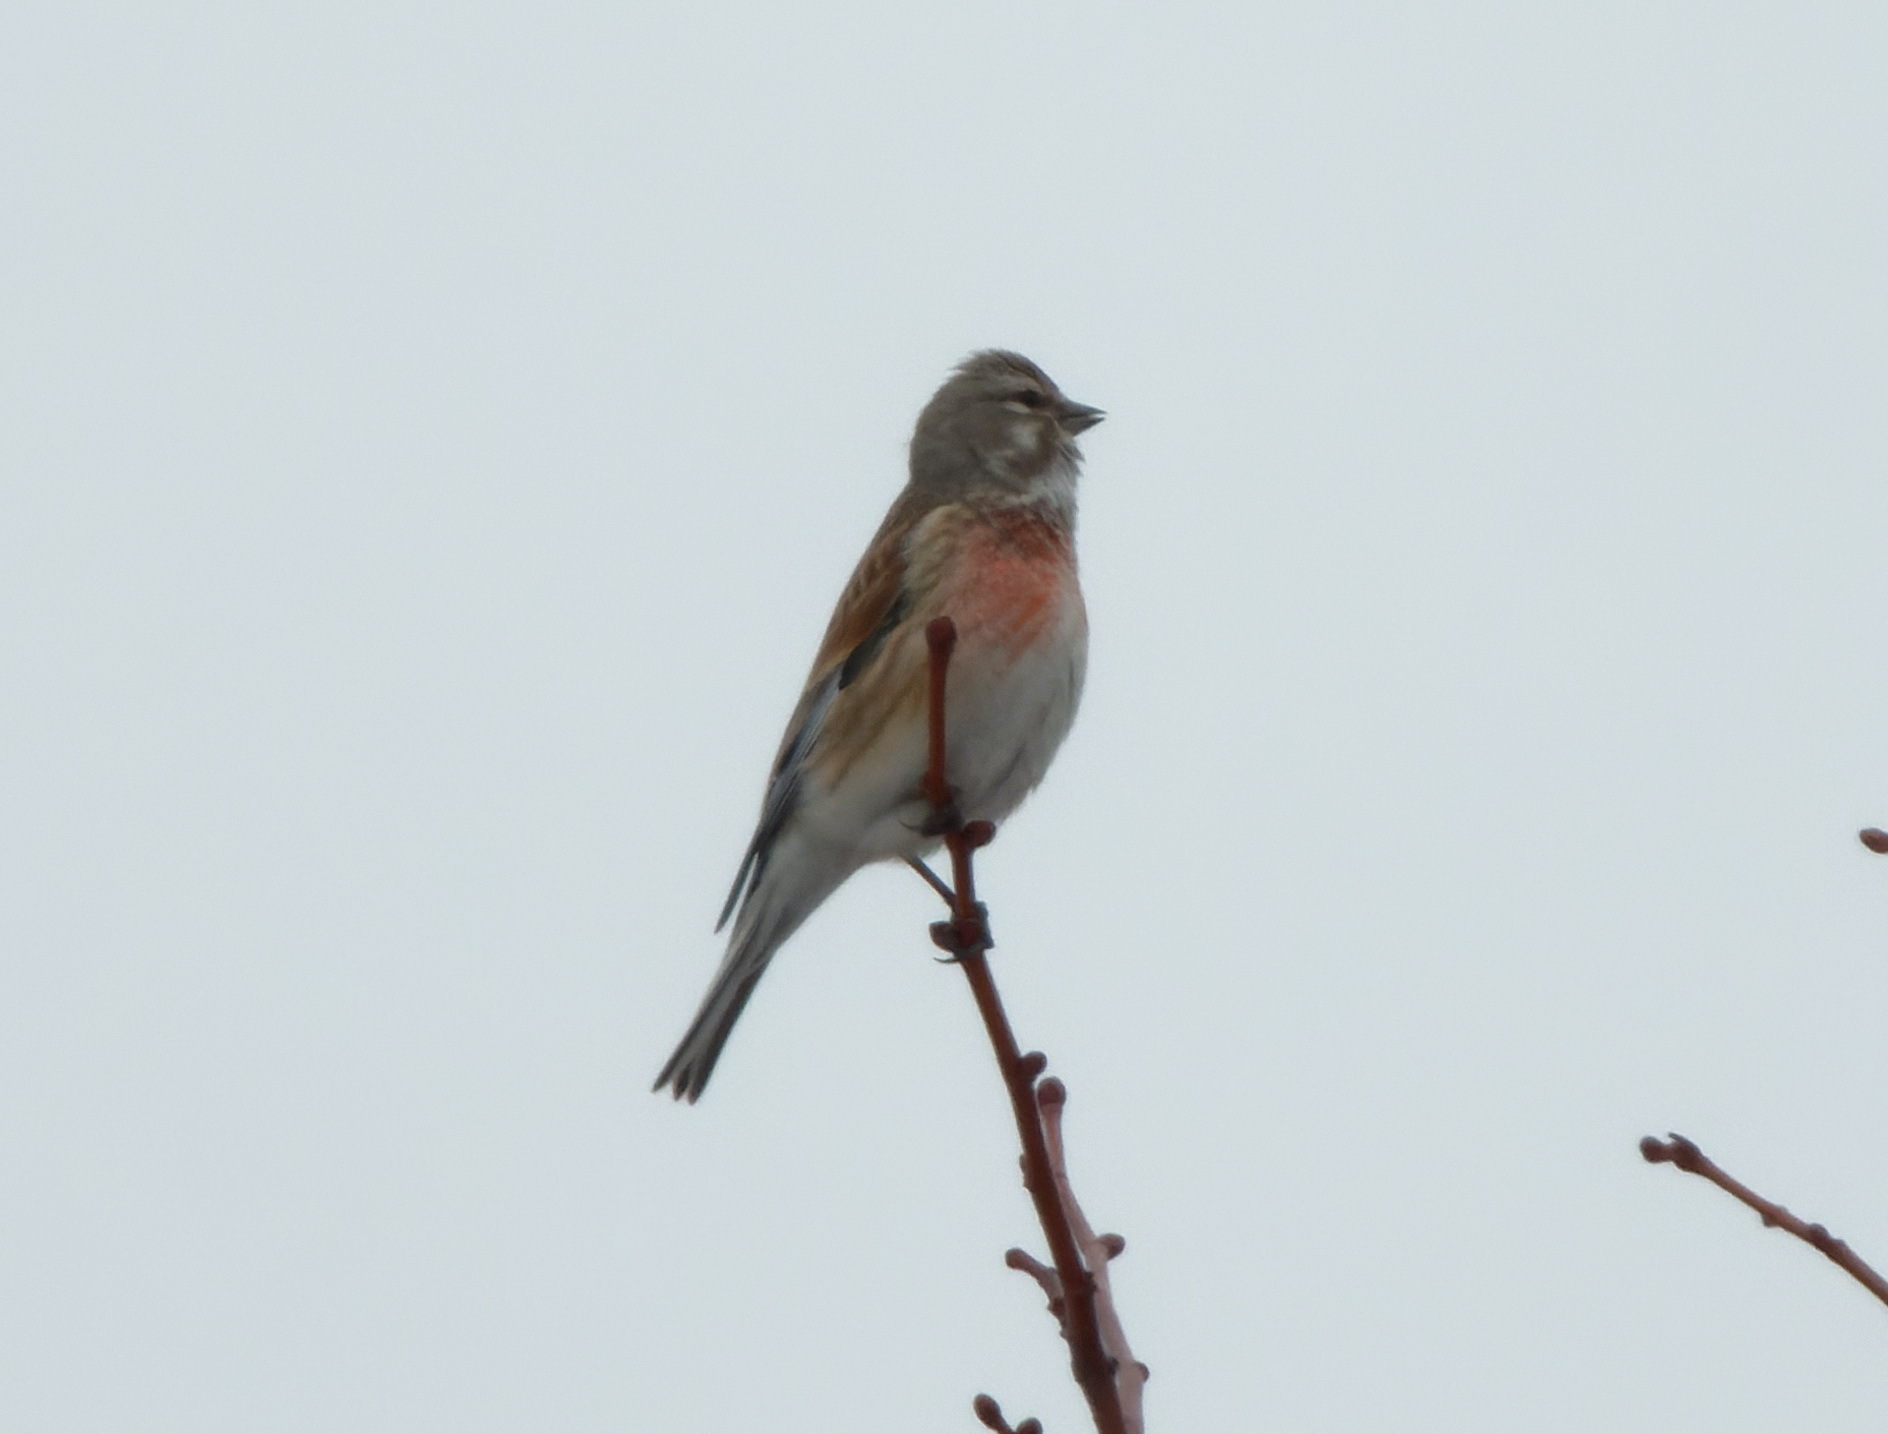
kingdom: Animalia
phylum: Chordata
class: Aves
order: Passeriformes
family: Fringillidae
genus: Linaria
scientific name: Linaria cannabina
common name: Common linnet
